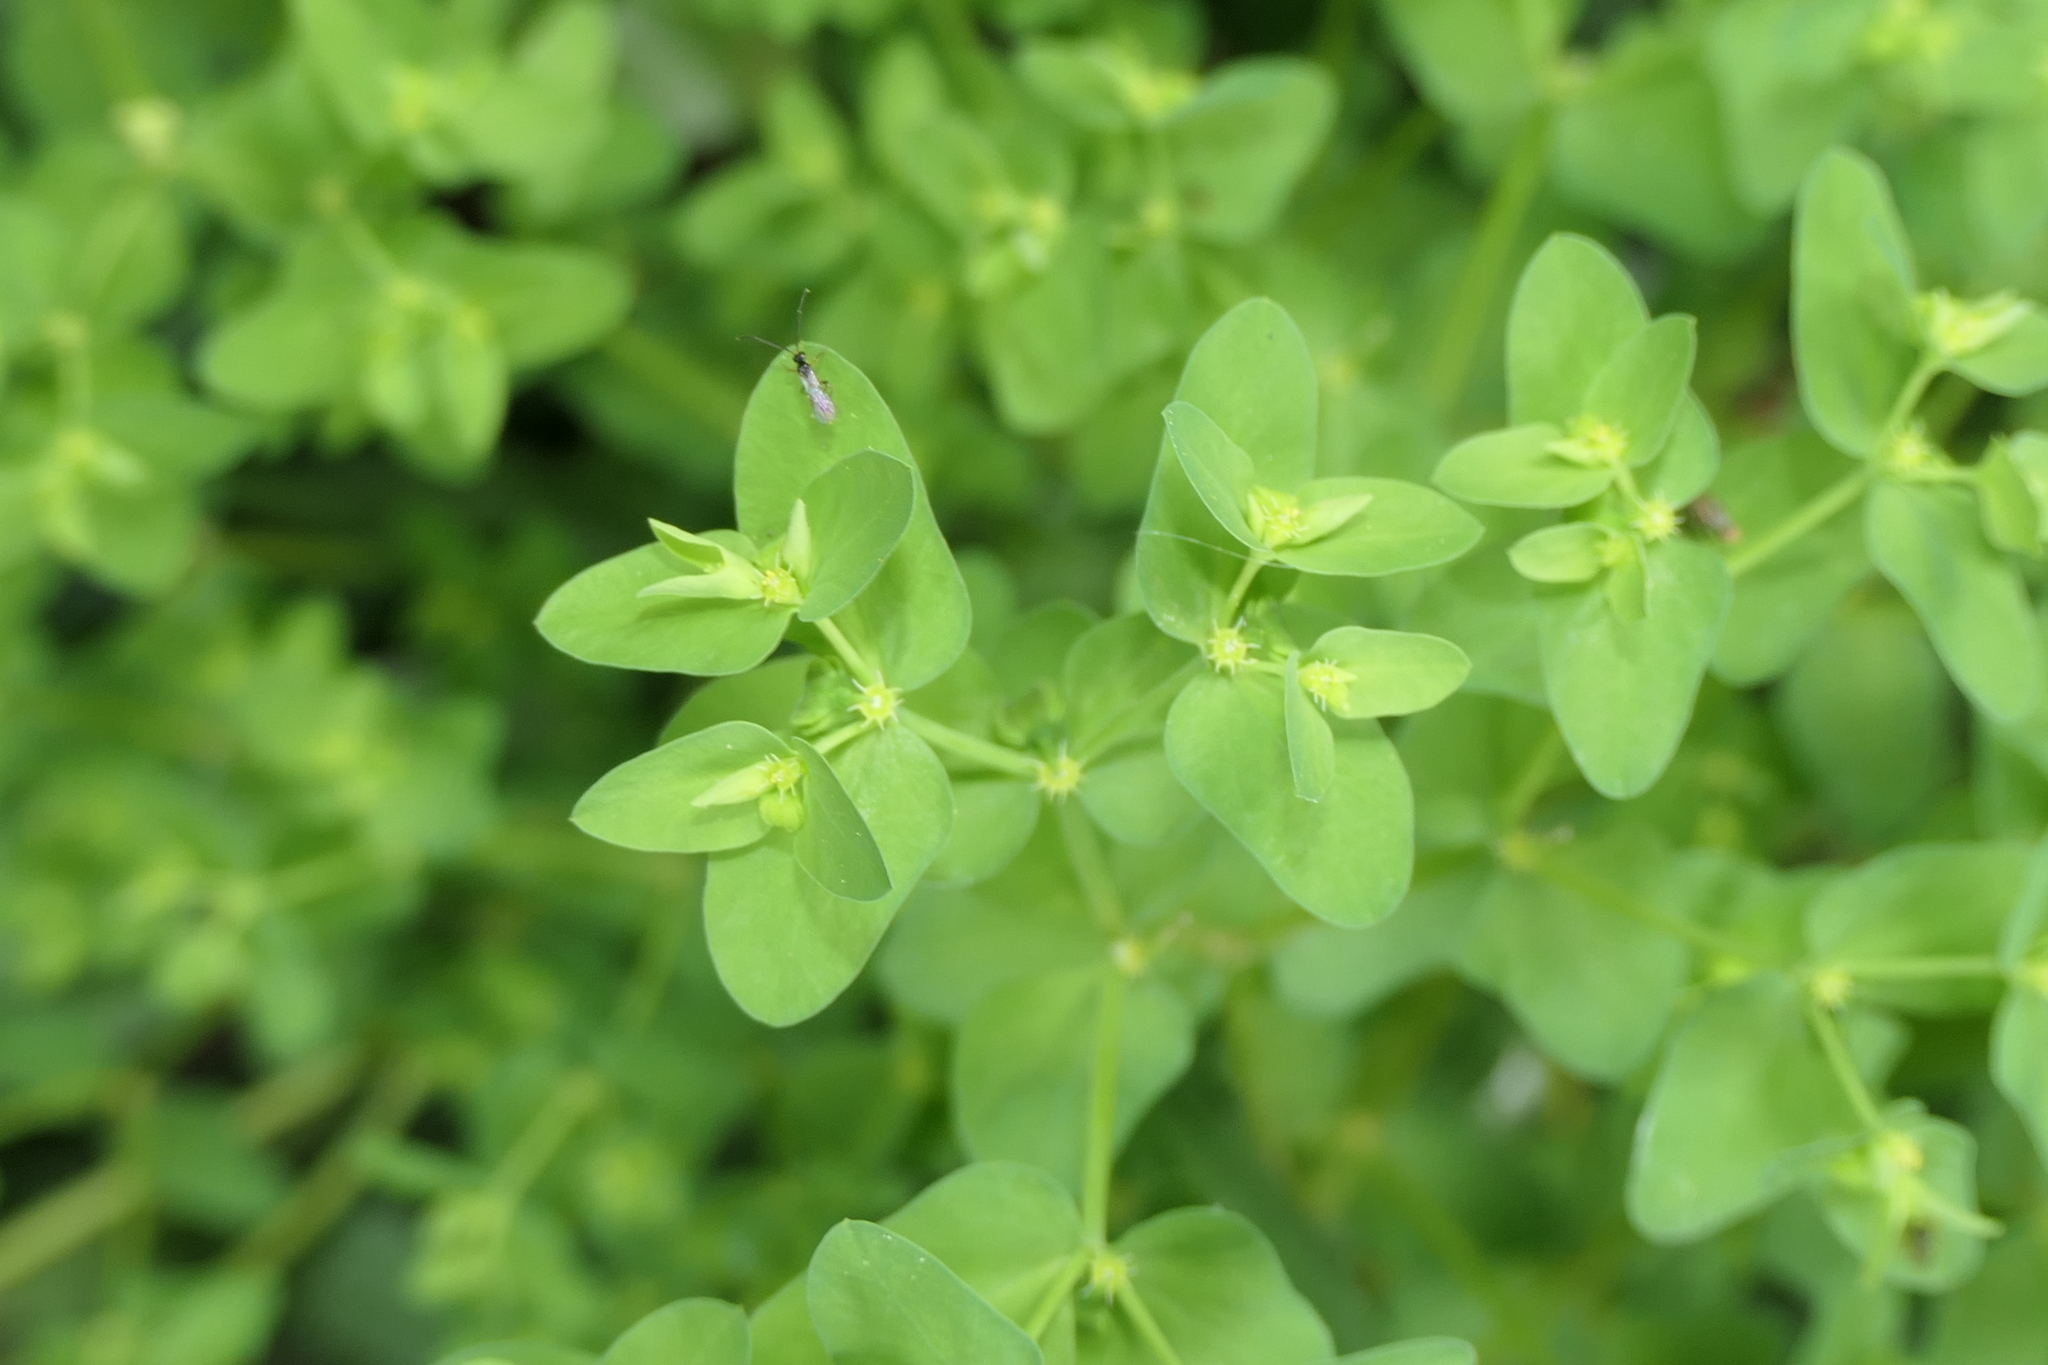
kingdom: Plantae
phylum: Tracheophyta
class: Magnoliopsida
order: Malpighiales
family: Euphorbiaceae
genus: Euphorbia
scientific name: Euphorbia peplus
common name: Petty spurge
